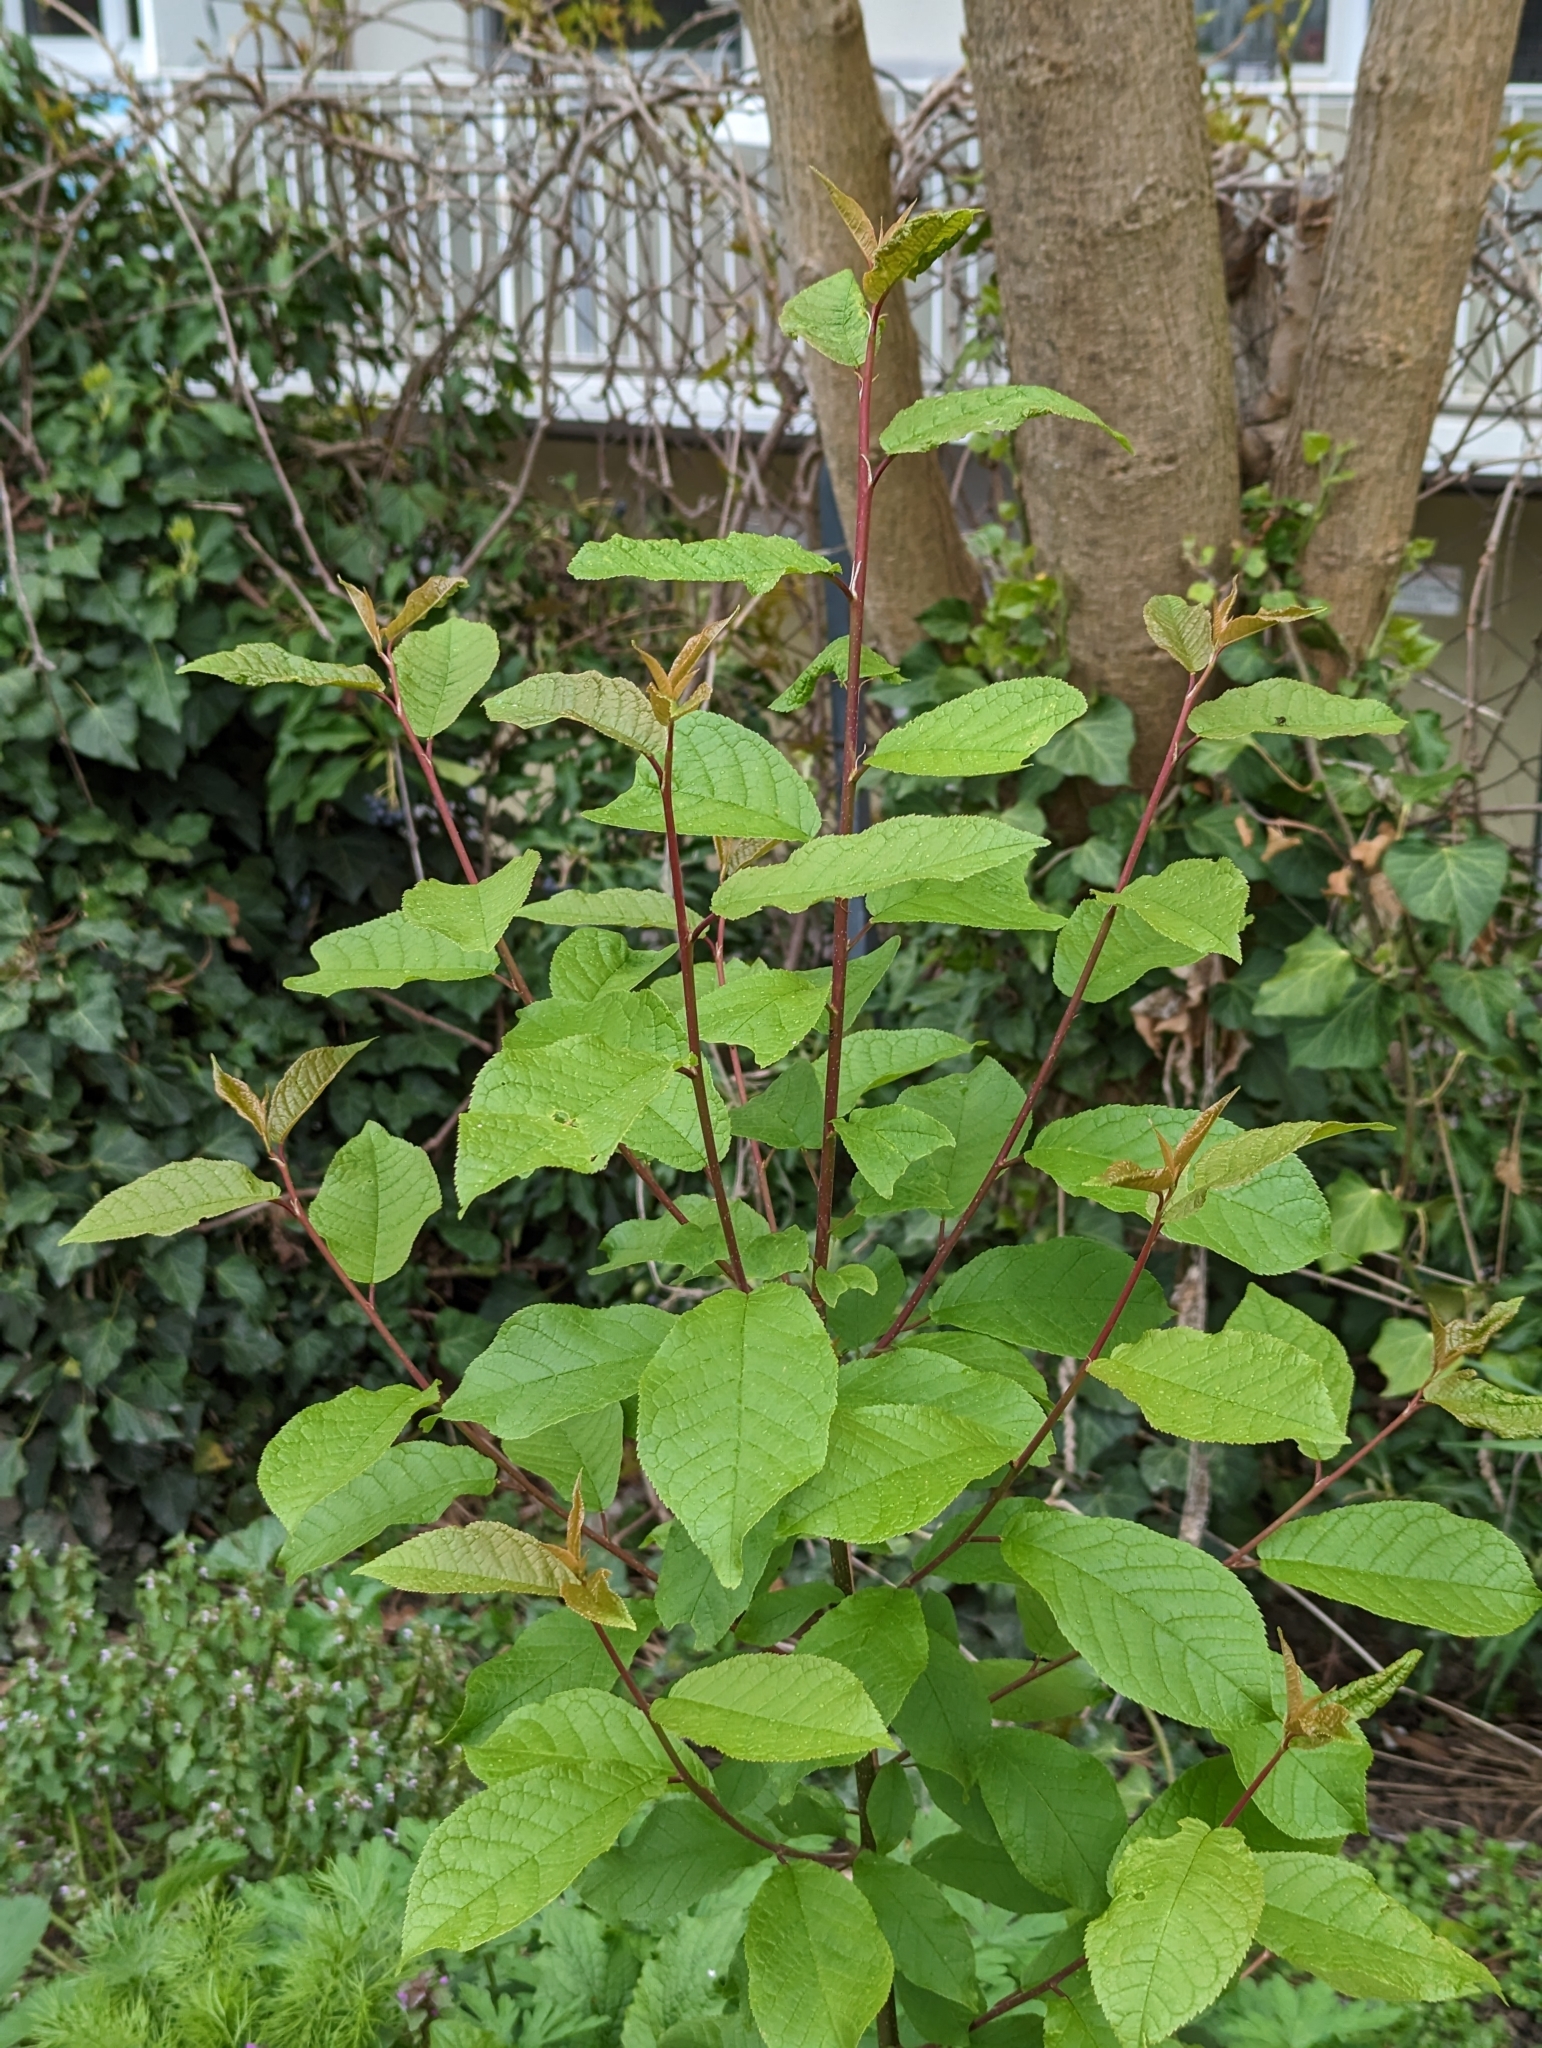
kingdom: Plantae
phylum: Tracheophyta
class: Magnoliopsida
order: Rosales
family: Rosaceae
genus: Prunus
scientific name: Prunus padus
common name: Bird cherry
